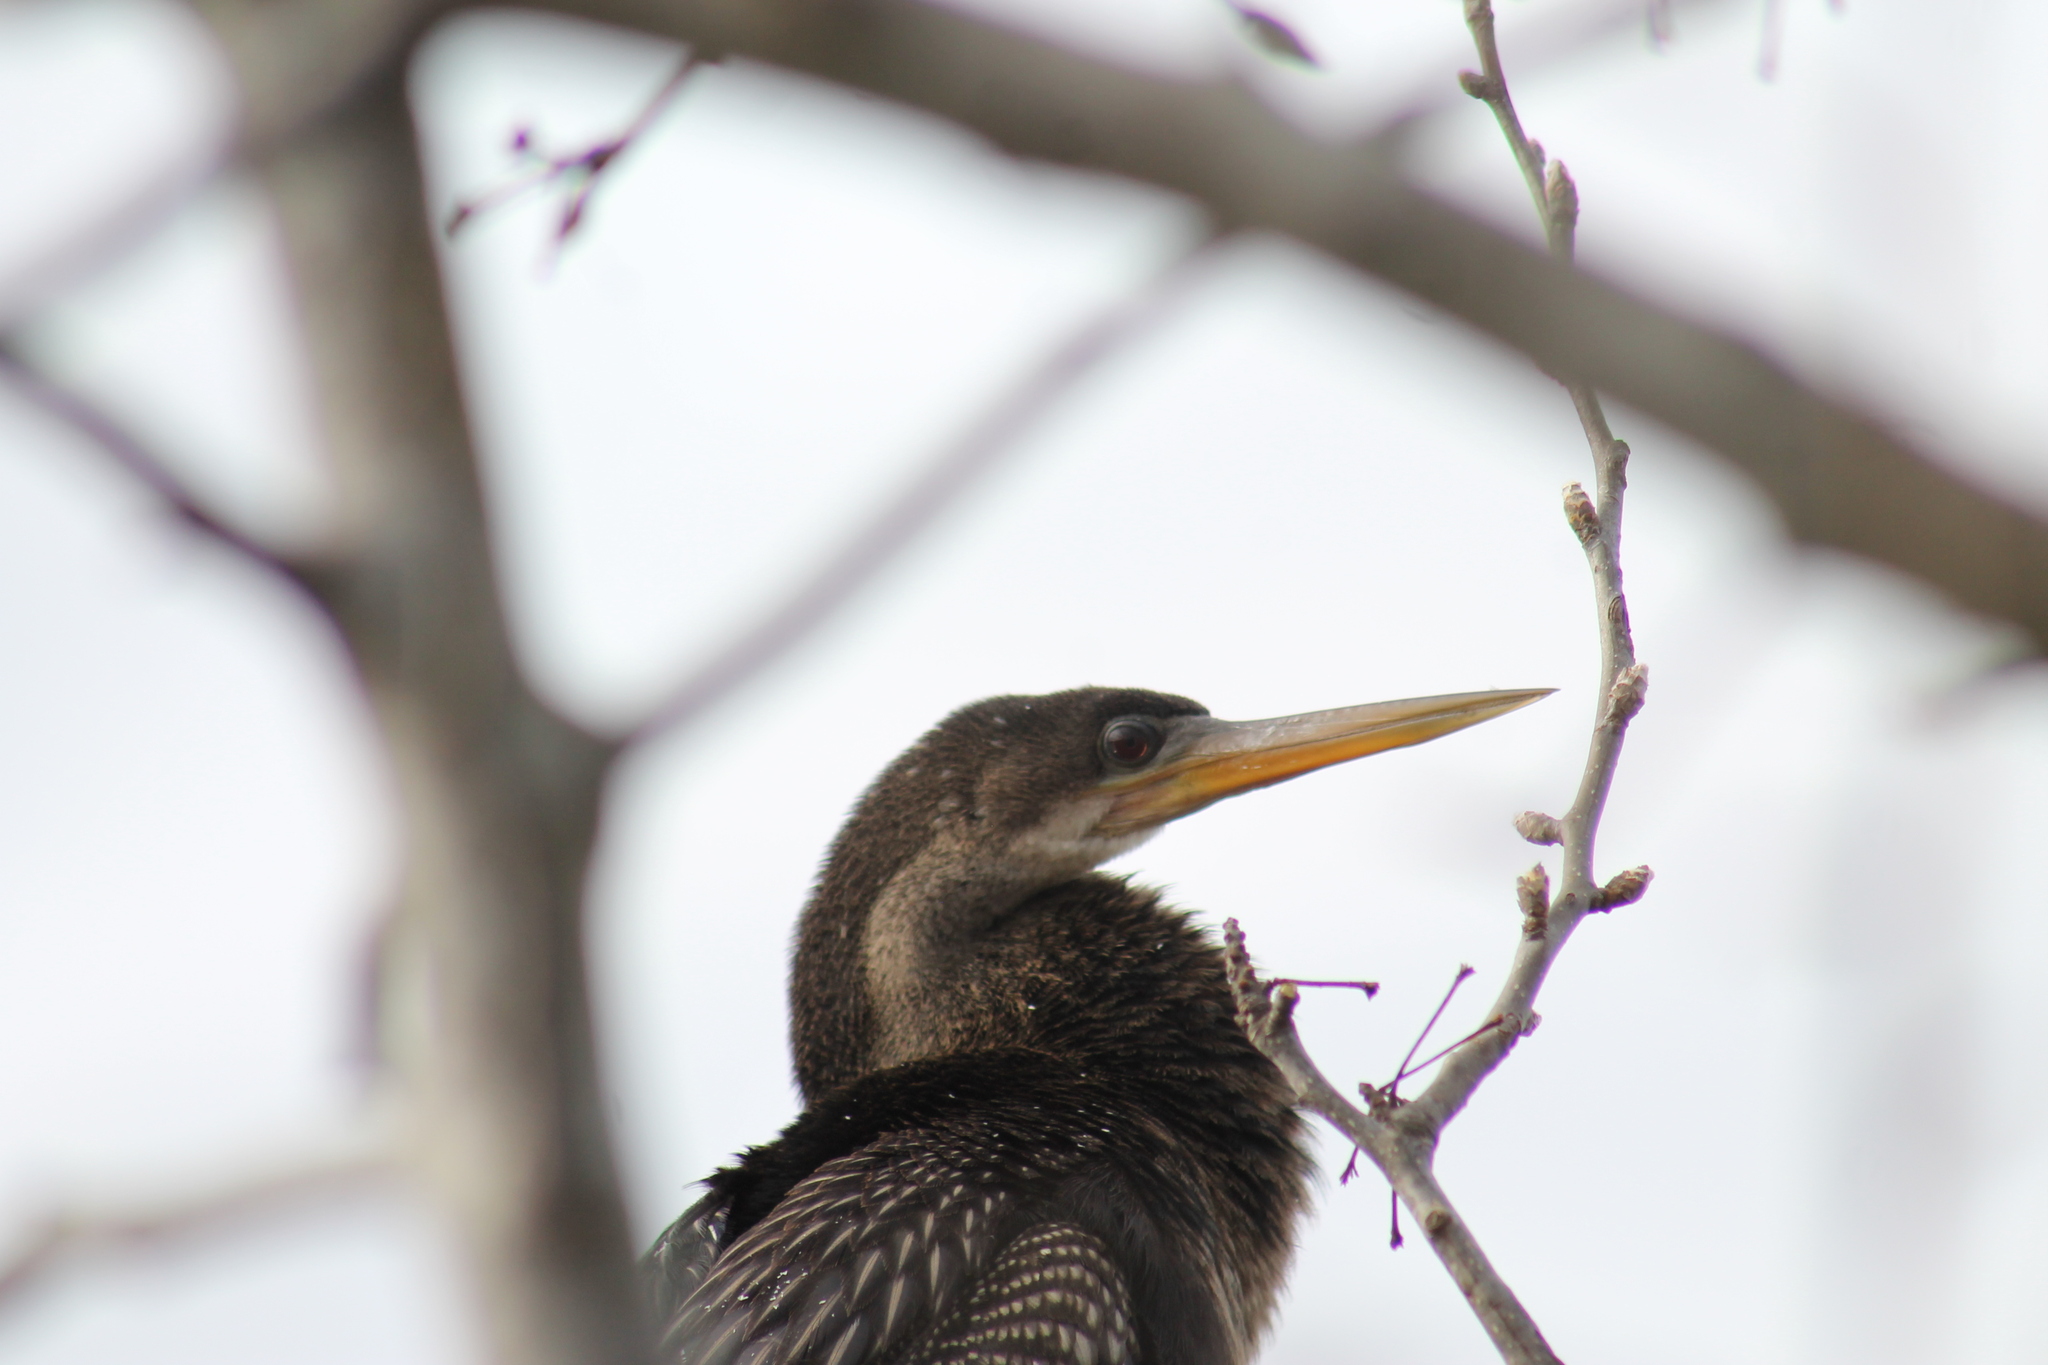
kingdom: Animalia
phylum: Chordata
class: Aves
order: Suliformes
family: Anhingidae
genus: Anhinga
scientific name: Anhinga anhinga
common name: Anhinga
